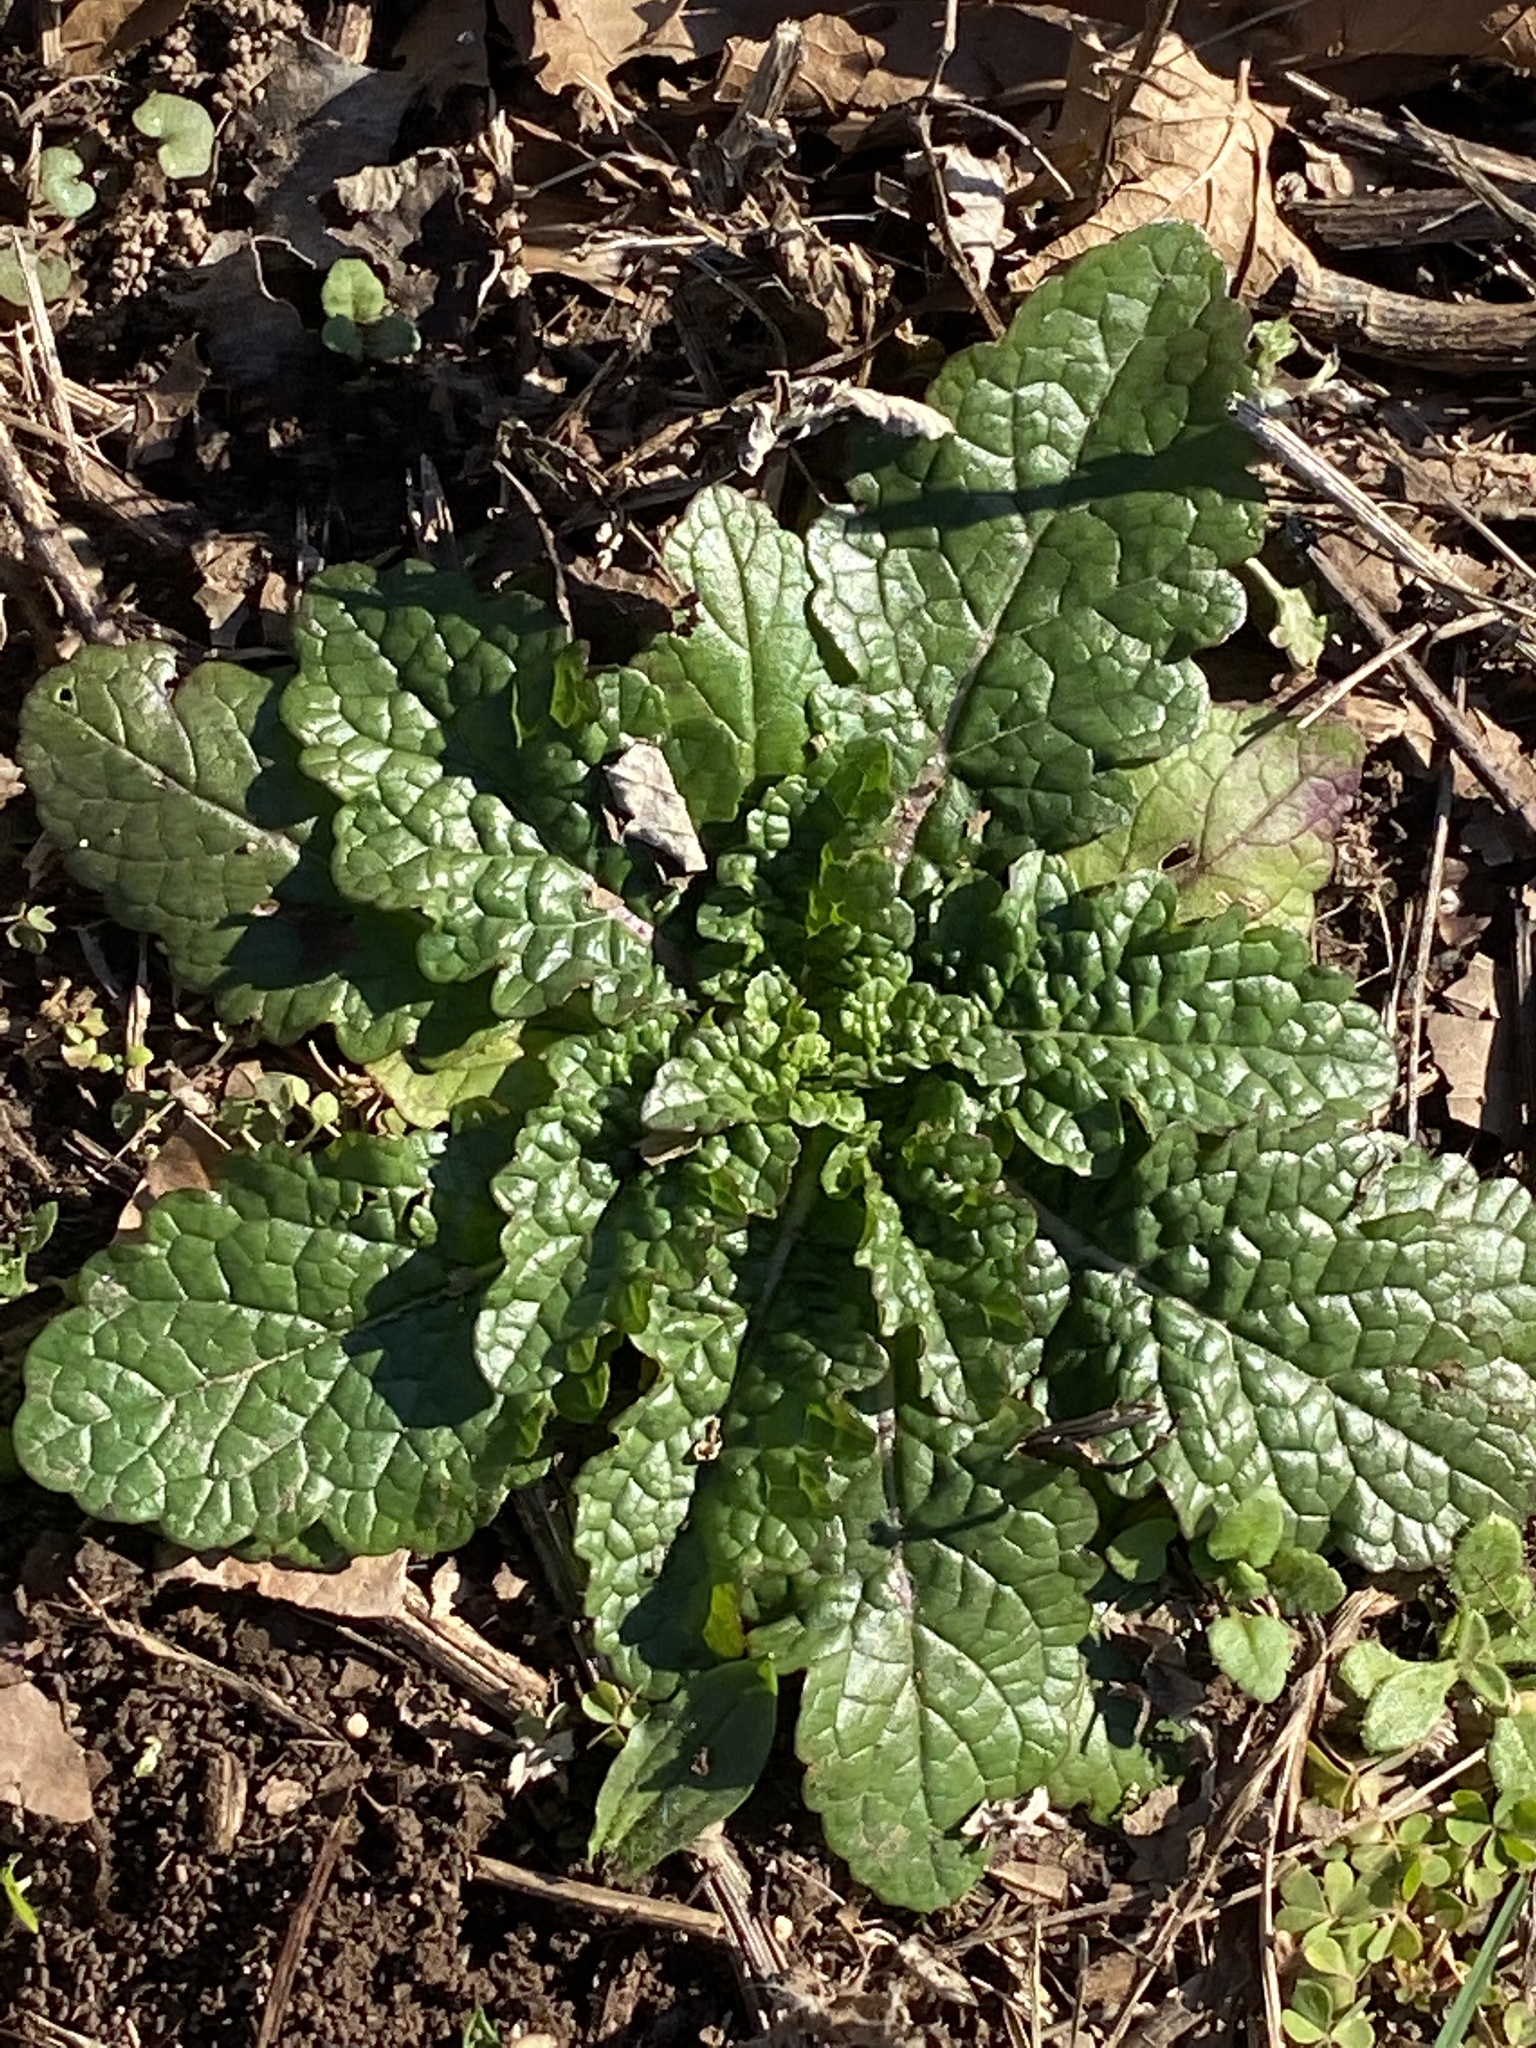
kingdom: Plantae
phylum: Tracheophyta
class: Magnoliopsida
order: Lamiales
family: Scrophulariaceae
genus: Verbascum
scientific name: Verbascum blattaria
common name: Moth mullein
